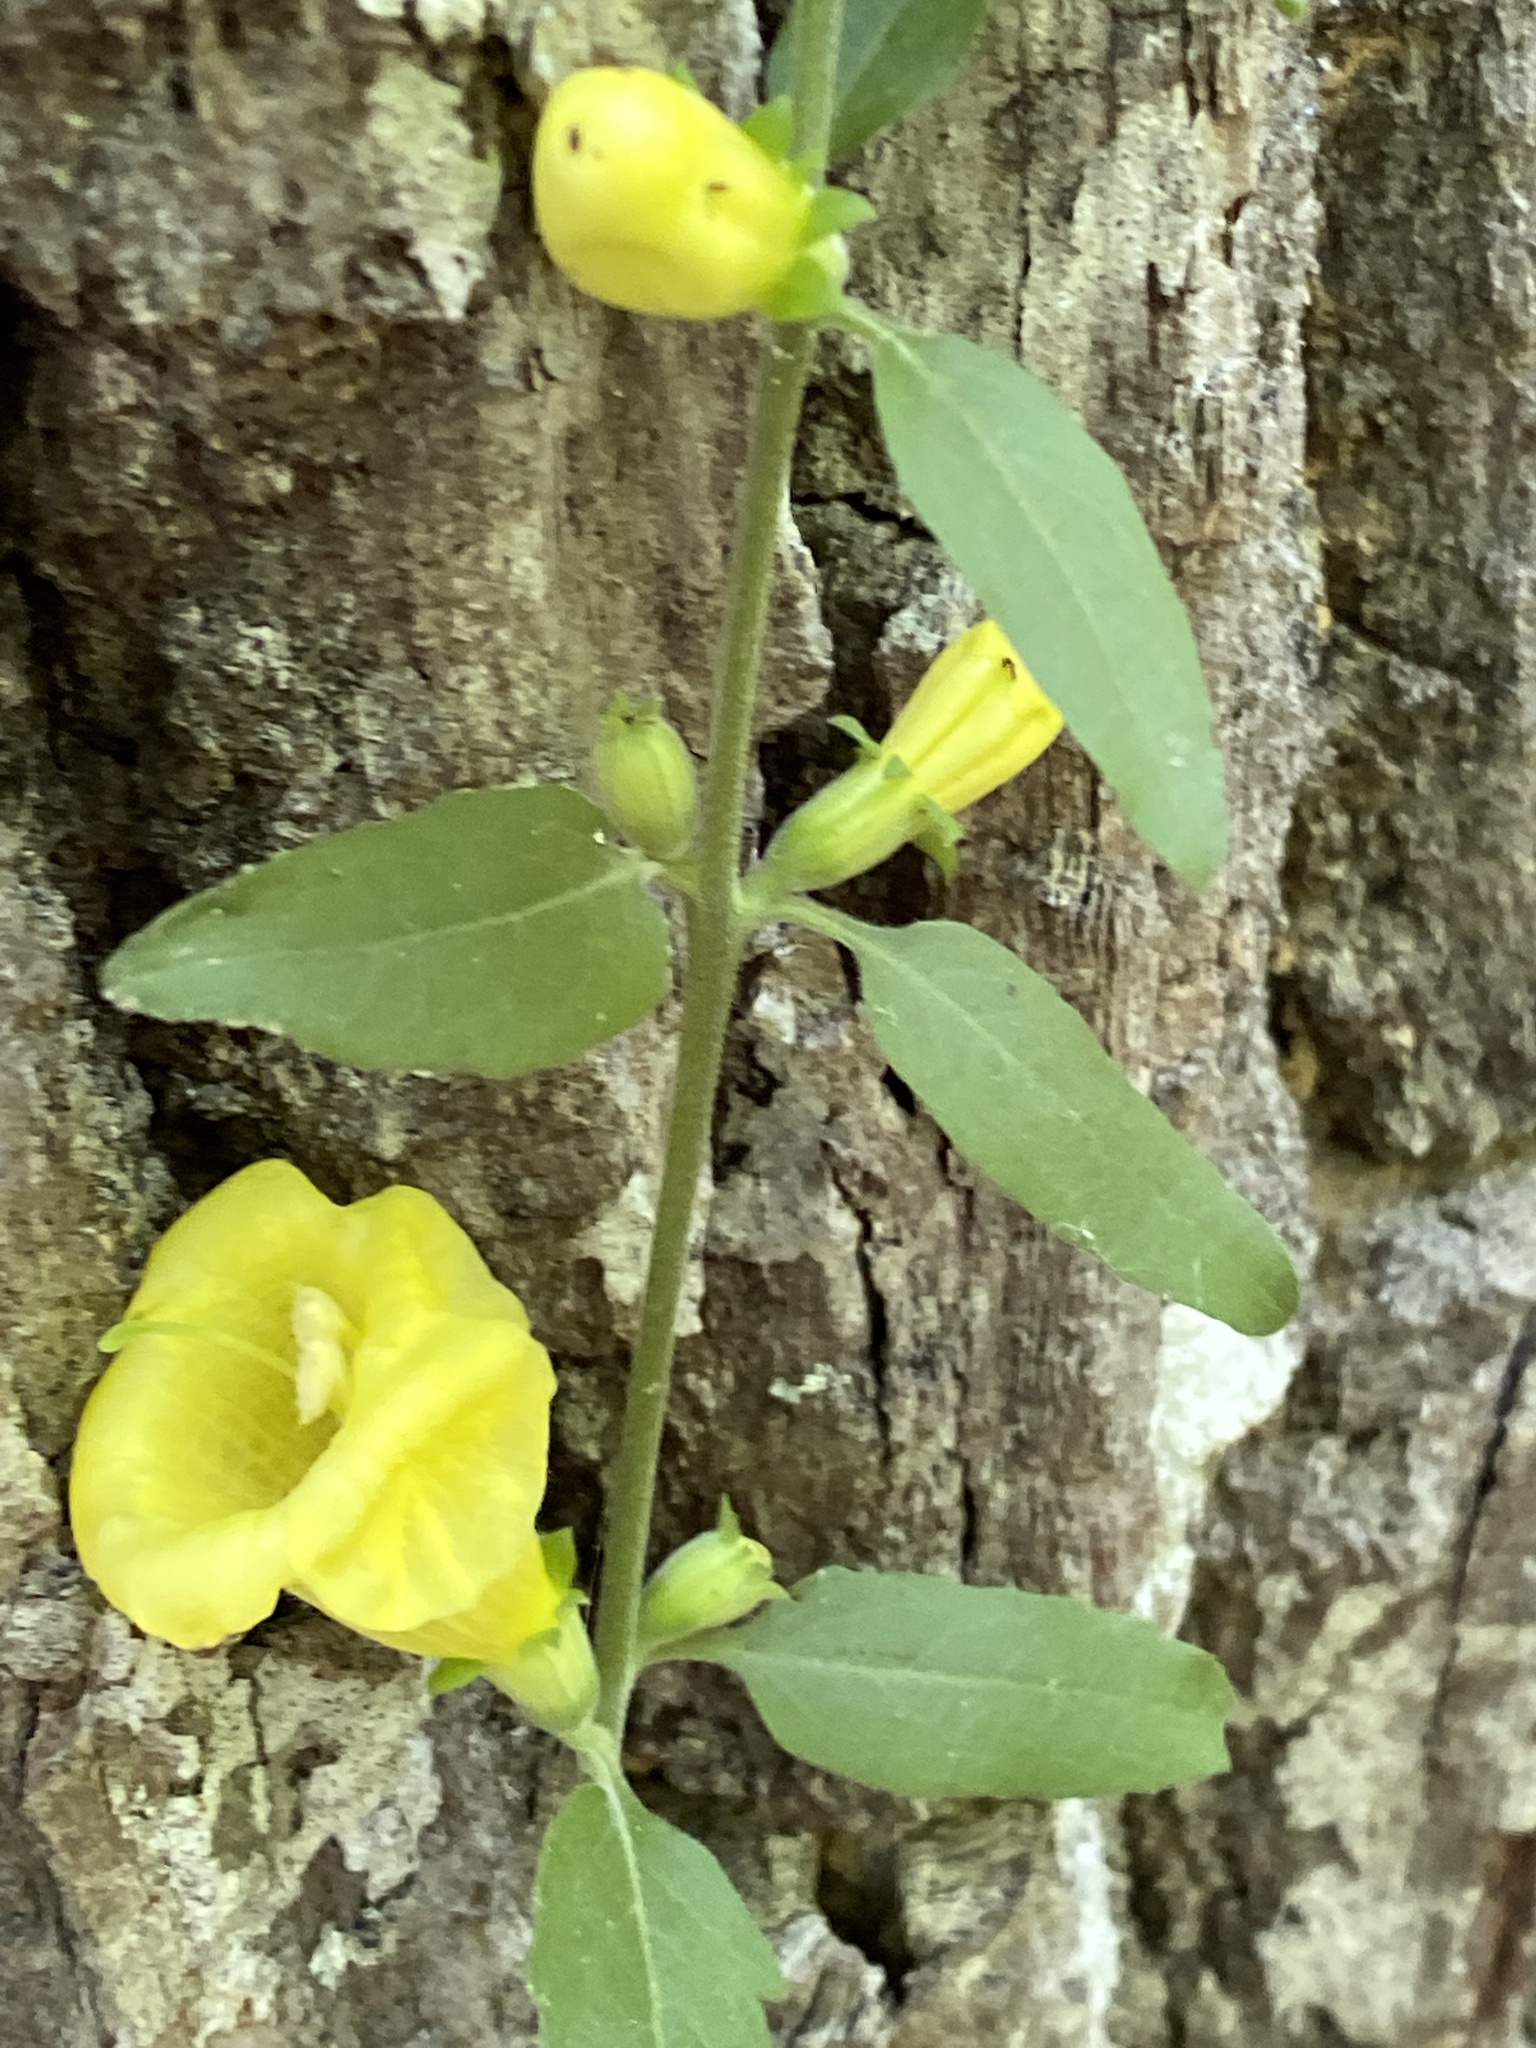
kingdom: Plantae
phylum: Tracheophyta
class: Magnoliopsida
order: Lamiales
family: Orobanchaceae
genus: Aureolaria
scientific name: Aureolaria virginica
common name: Downy false foxglove
